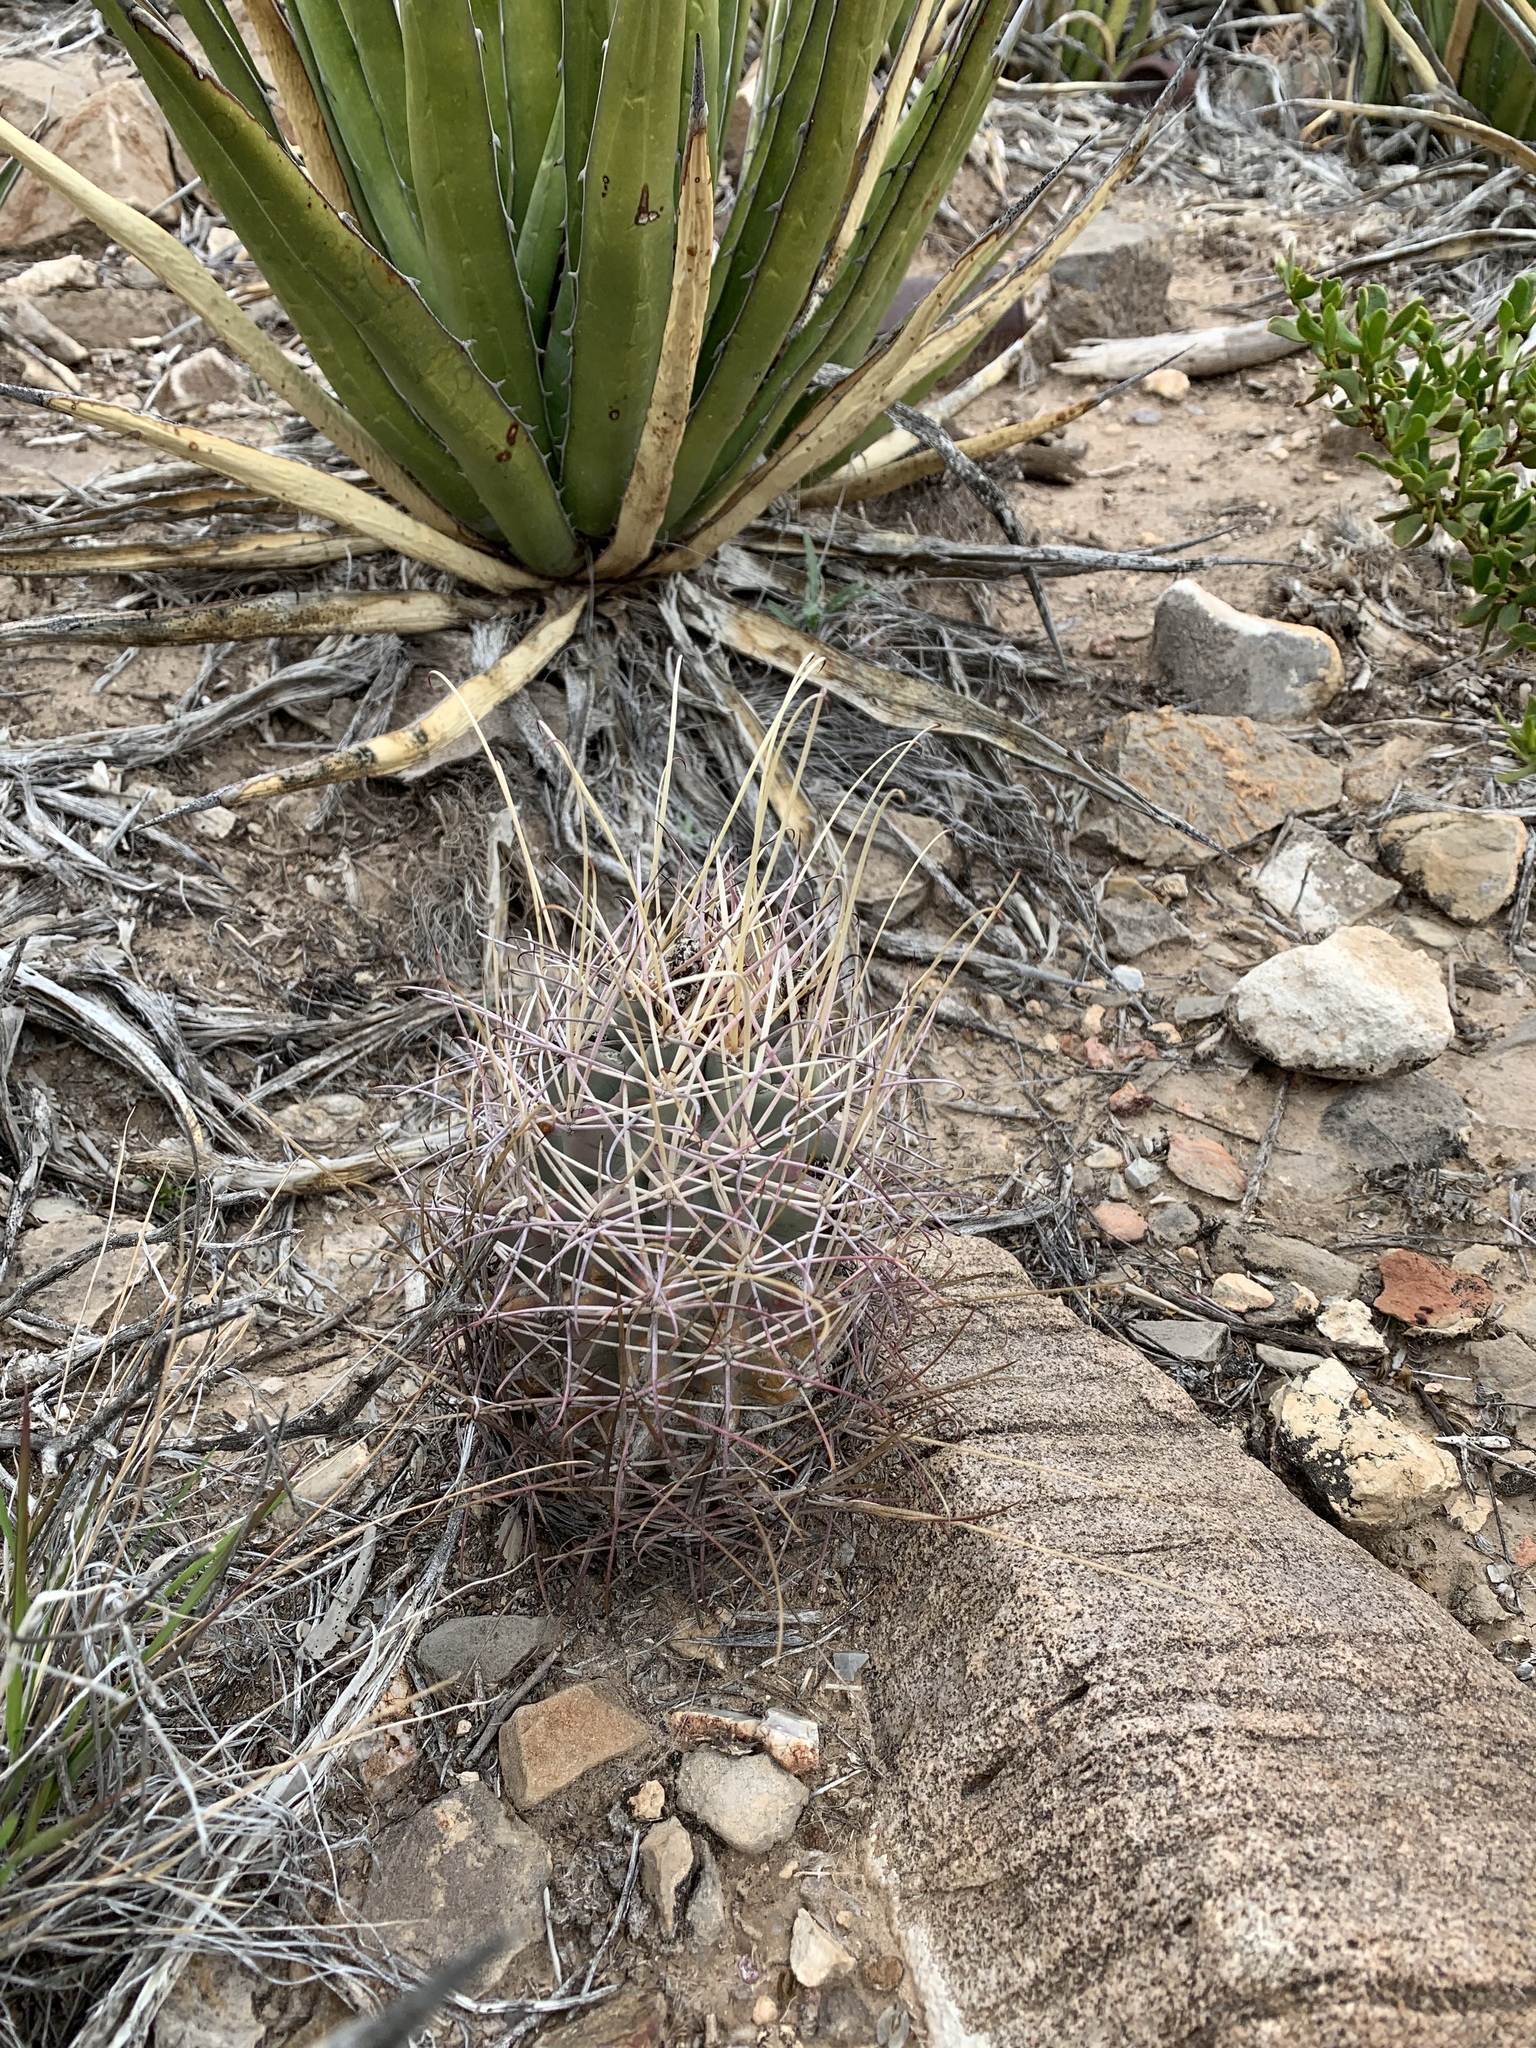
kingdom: Plantae
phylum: Tracheophyta
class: Magnoliopsida
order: Caryophyllales
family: Cactaceae
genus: Ferocactus
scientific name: Ferocactus uncinatus
